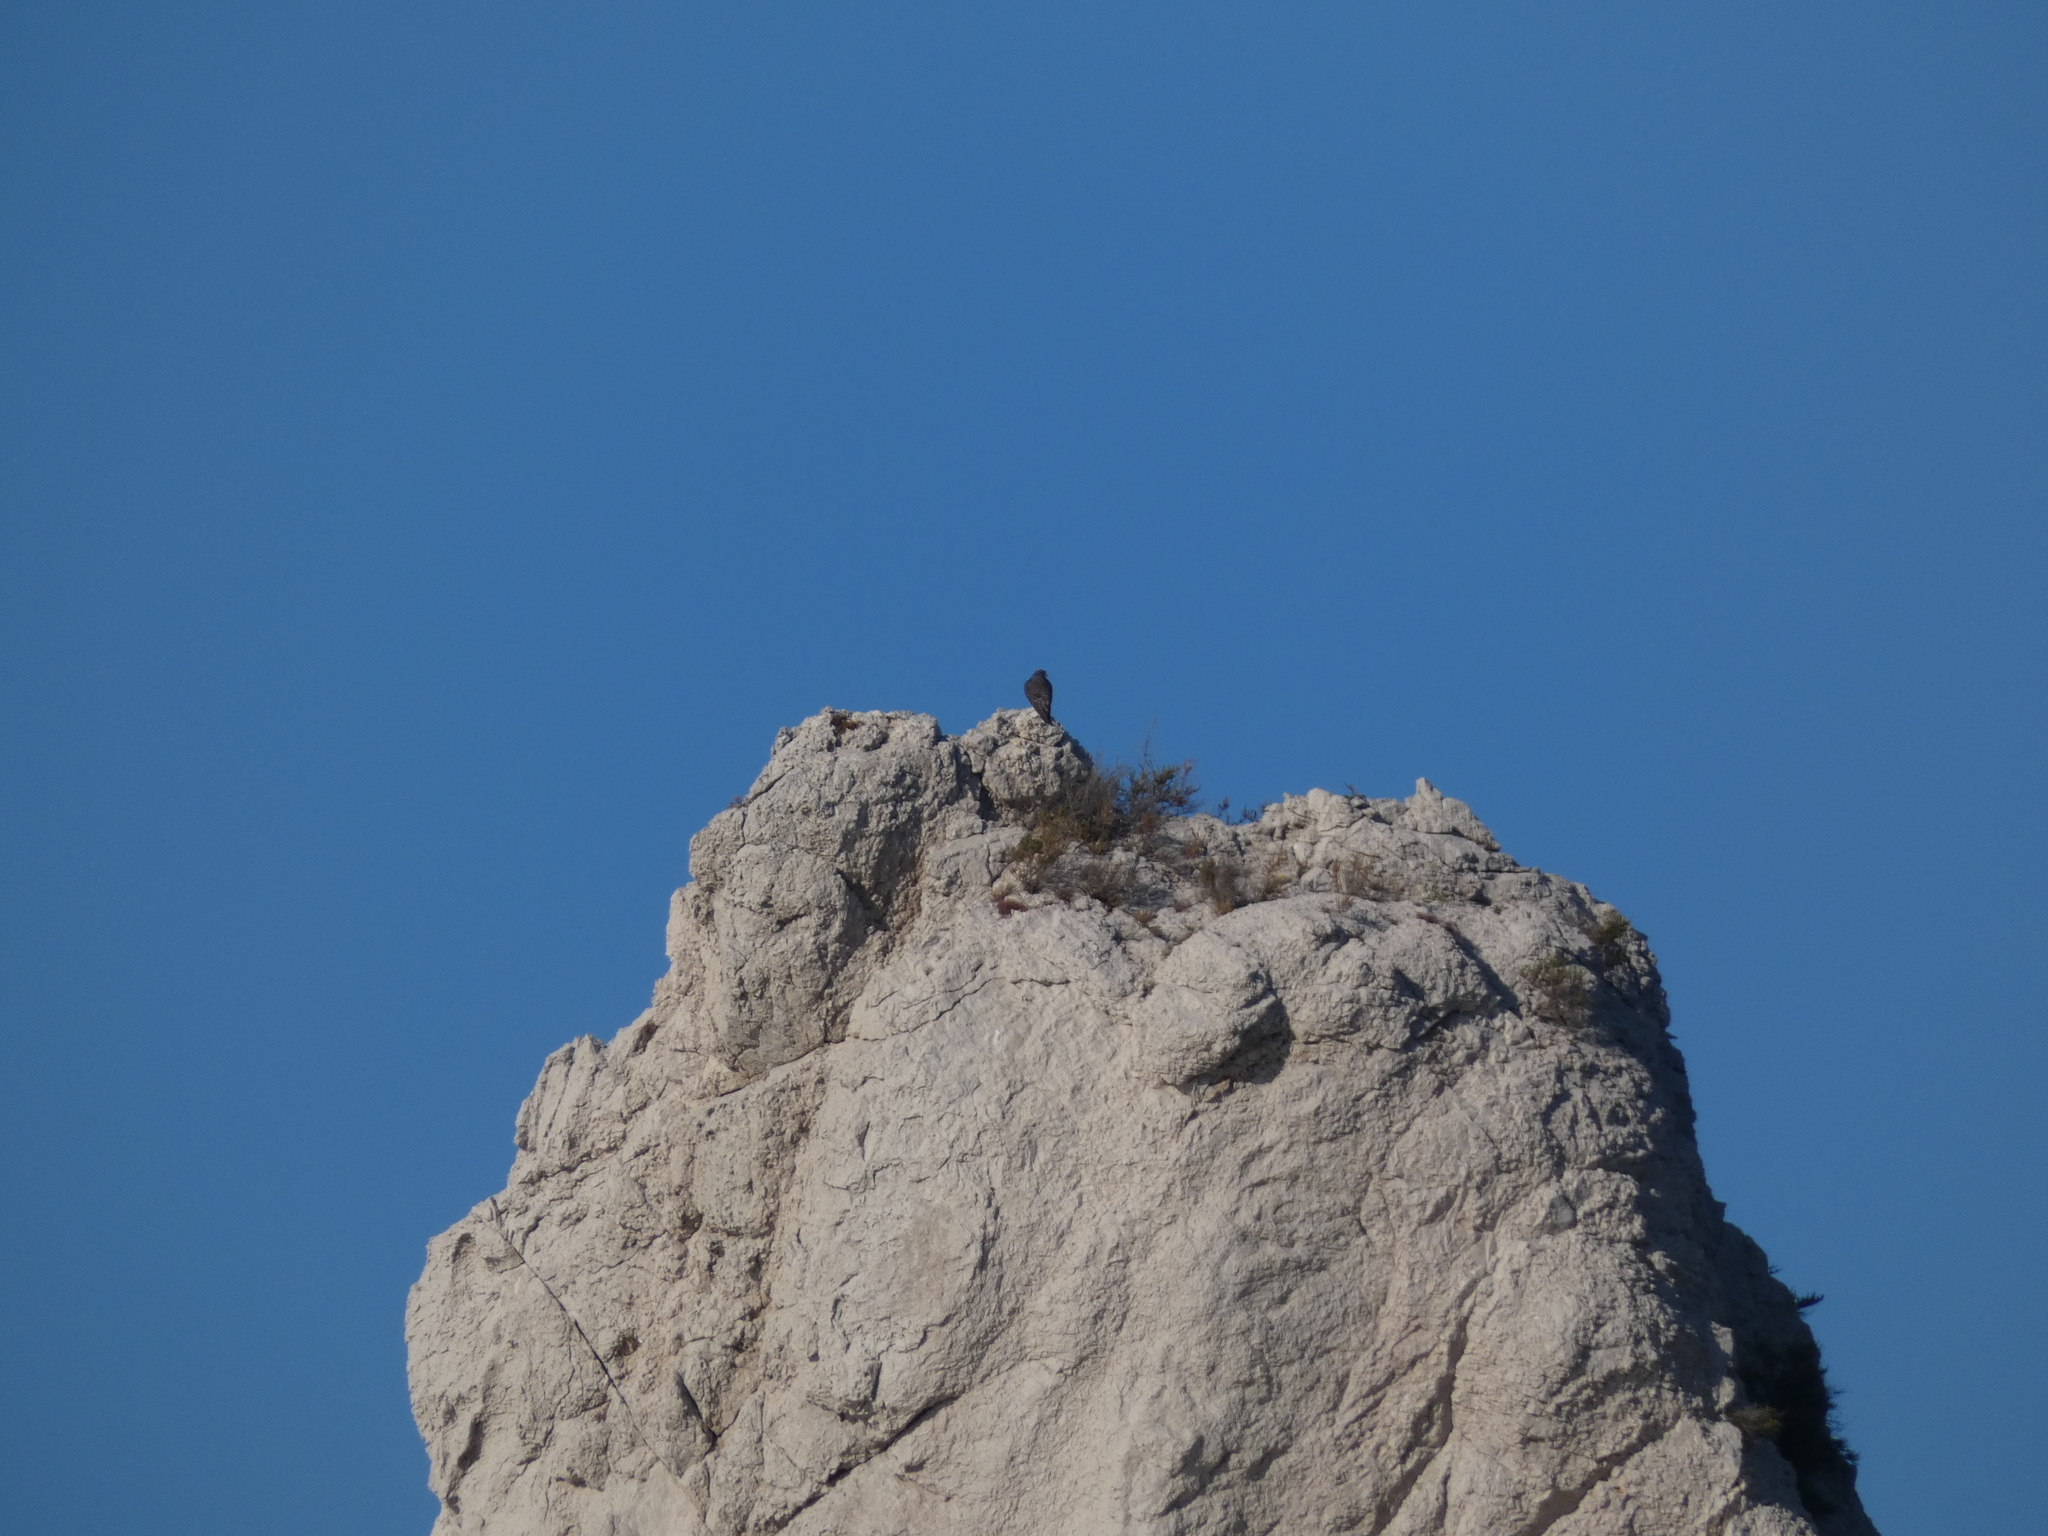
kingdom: Animalia
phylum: Chordata
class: Aves
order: Falconiformes
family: Falconidae
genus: Falco
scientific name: Falco peregrinus
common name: Peregrine falcon
